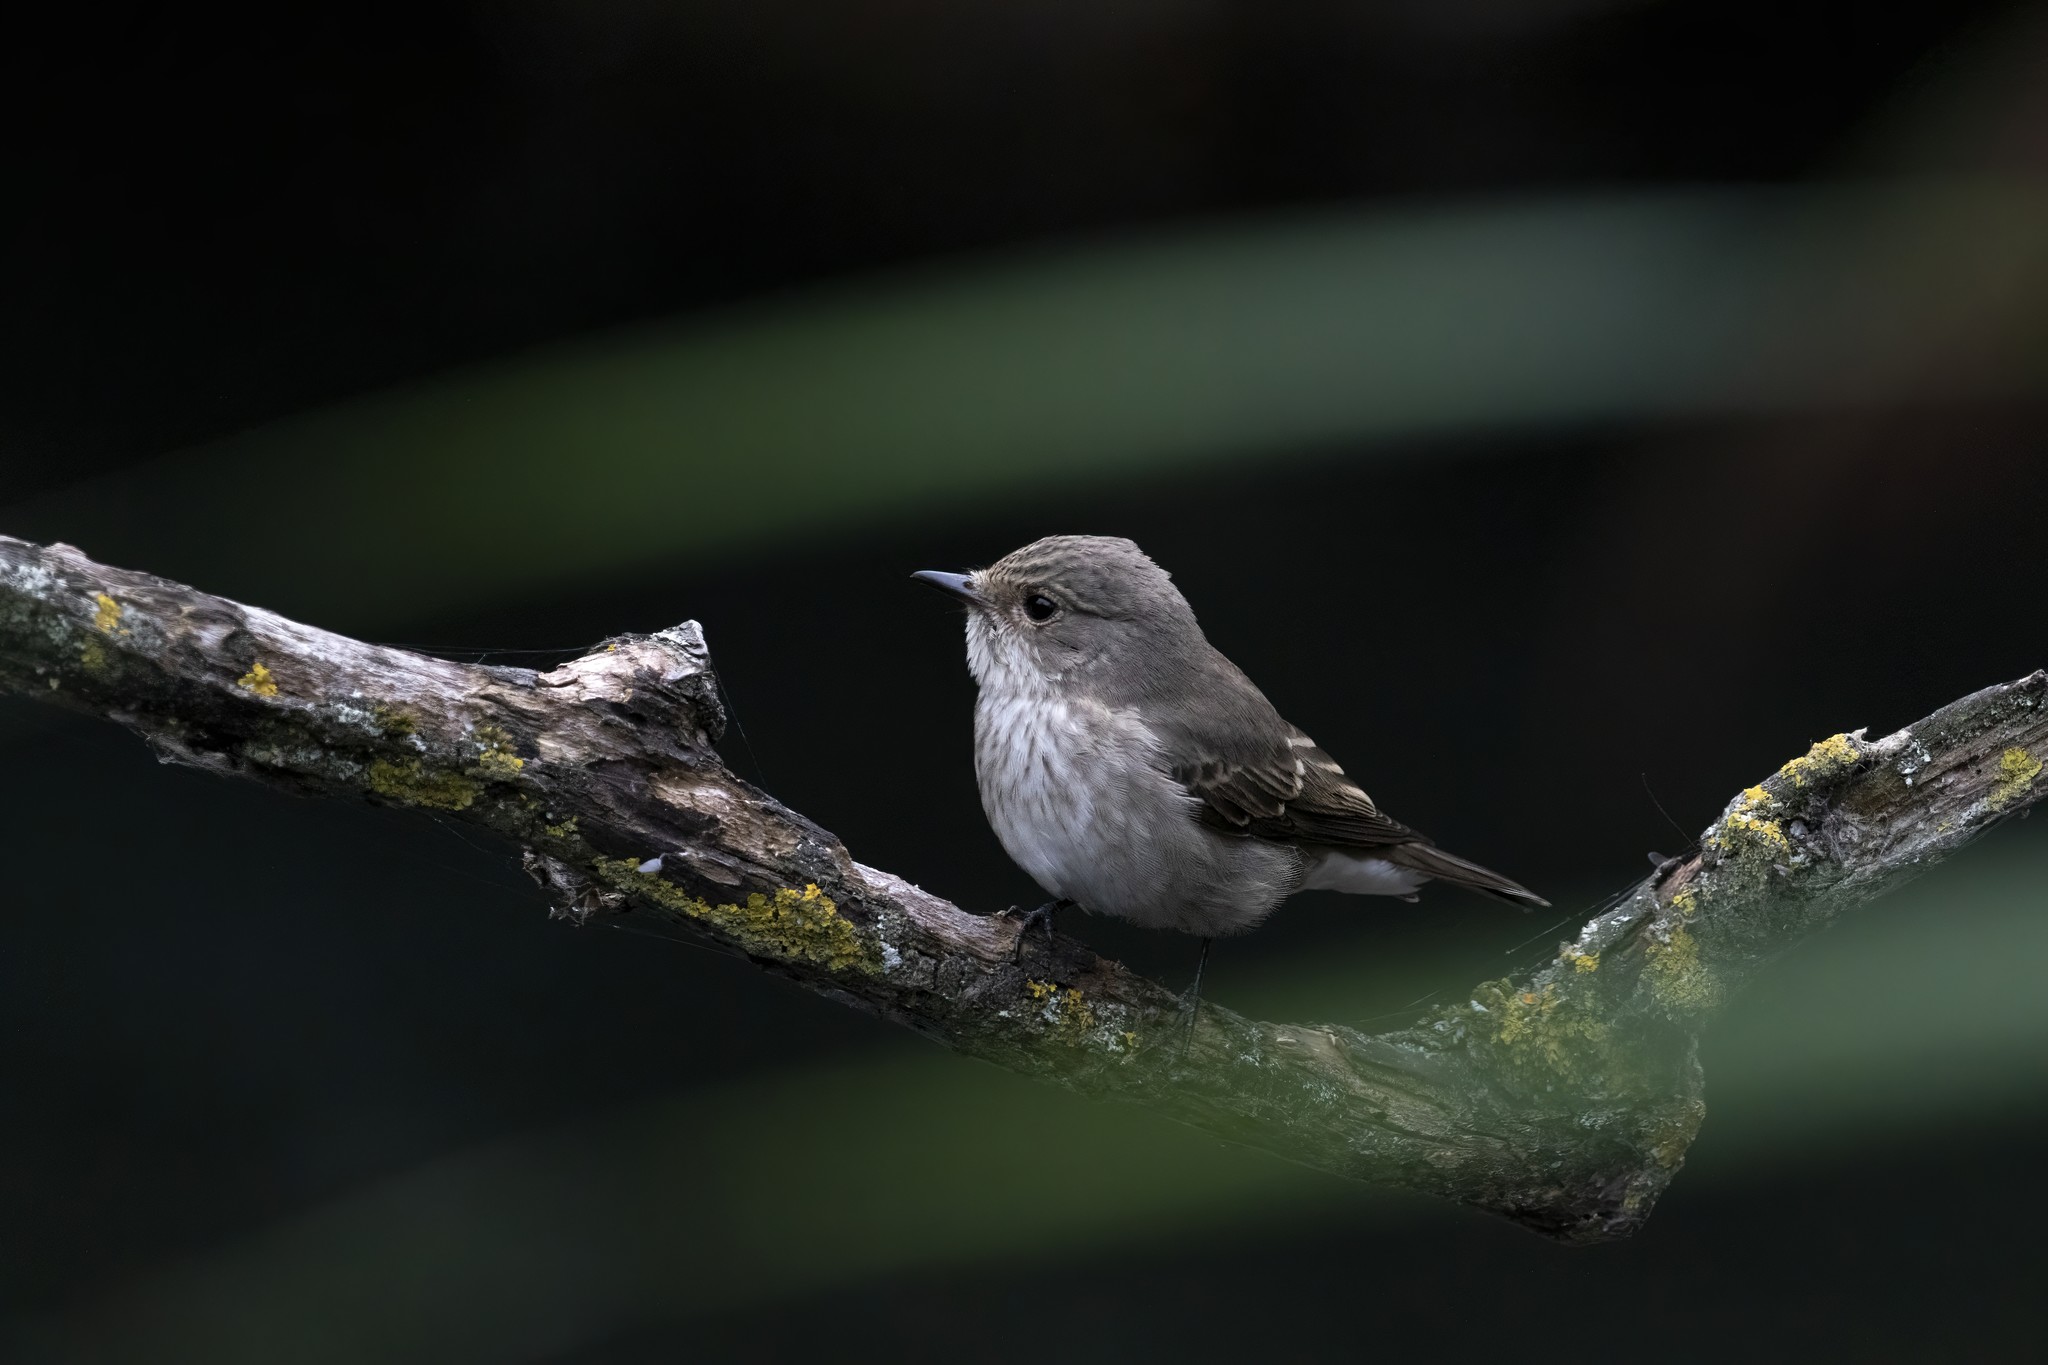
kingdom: Animalia
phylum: Chordata
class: Aves
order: Passeriformes
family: Muscicapidae
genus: Muscicapa
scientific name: Muscicapa striata
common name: Spotted flycatcher
